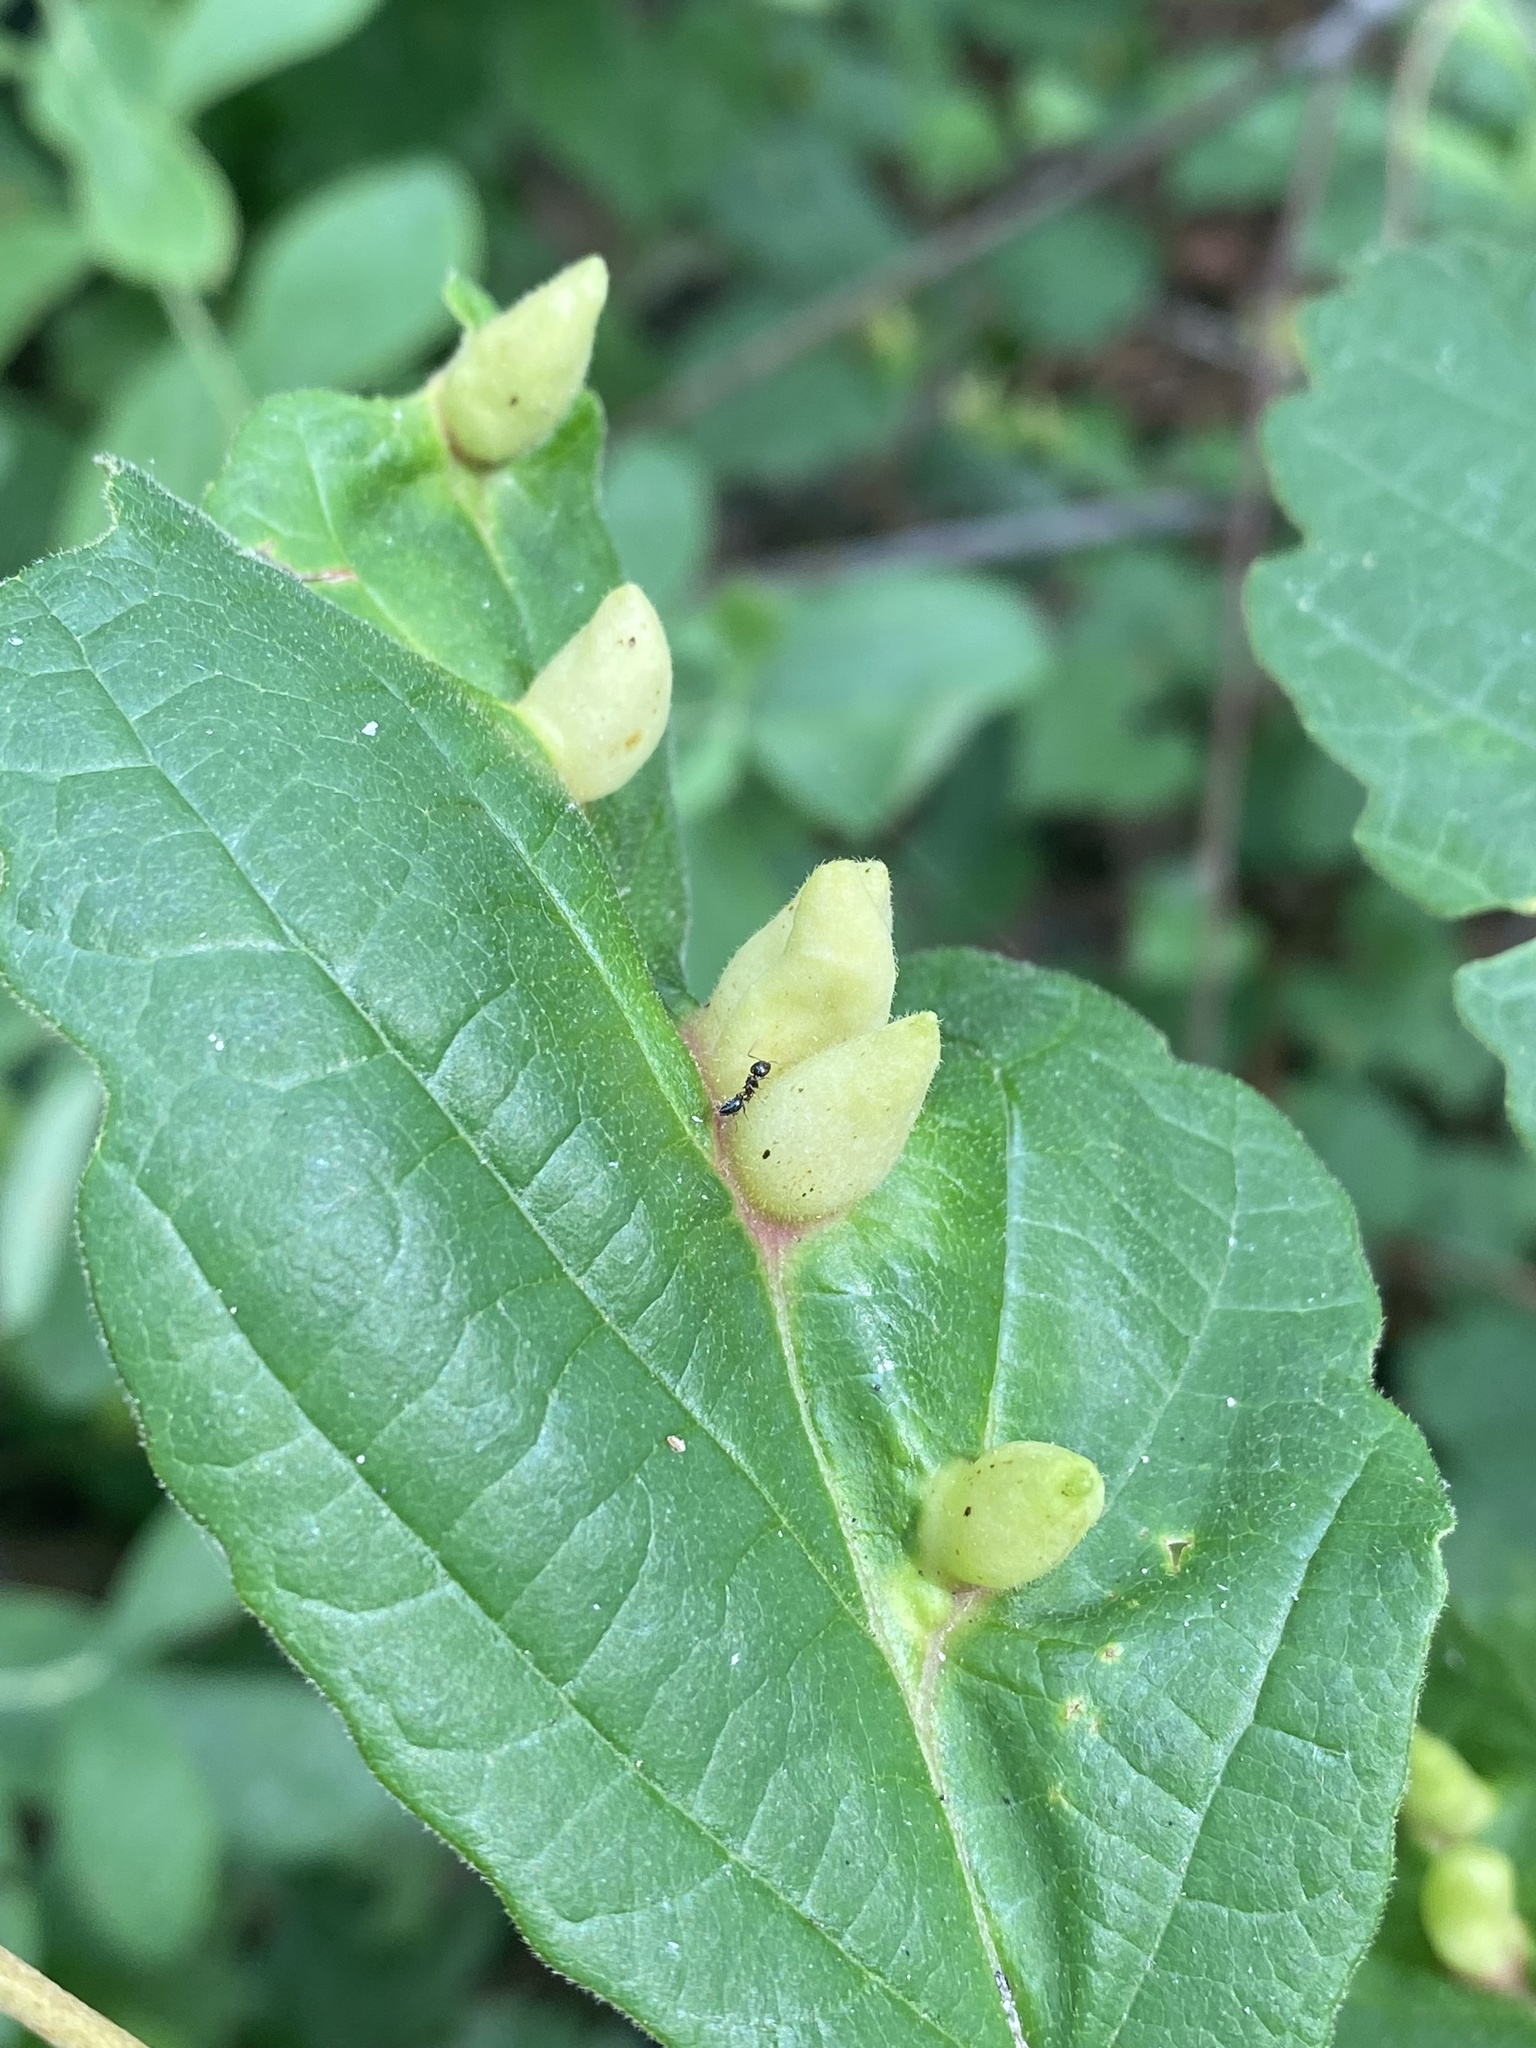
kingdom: Animalia
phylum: Arthropoda
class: Insecta
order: Hemiptera
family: Aphididae
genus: Hormaphis
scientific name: Hormaphis hamamelidis
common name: Witch-hazel cone gall aphid
